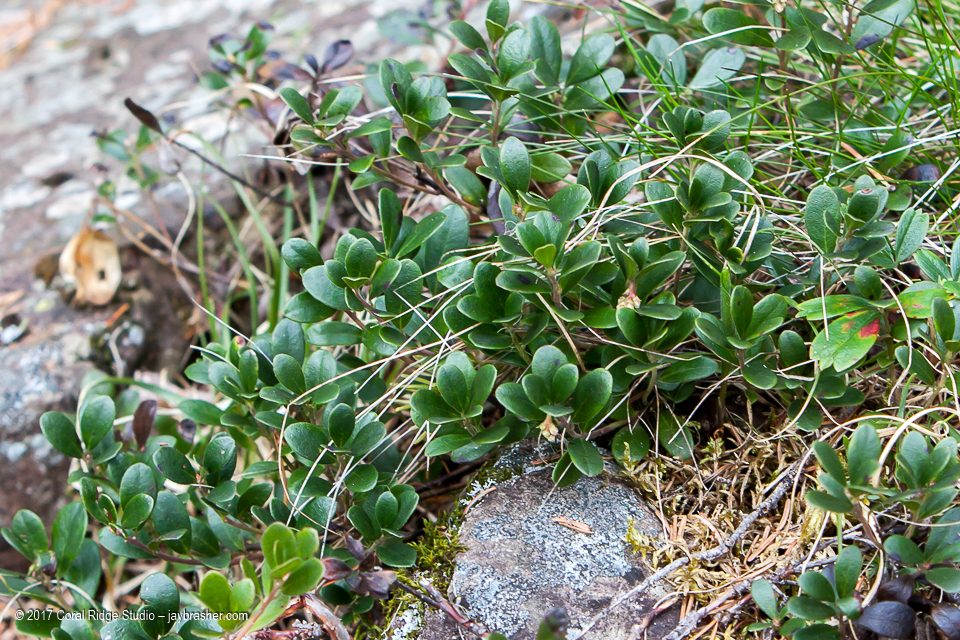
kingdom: Plantae
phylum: Tracheophyta
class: Magnoliopsida
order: Ericales
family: Ericaceae
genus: Arctostaphylos
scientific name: Arctostaphylos uva-ursi
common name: Bearberry
